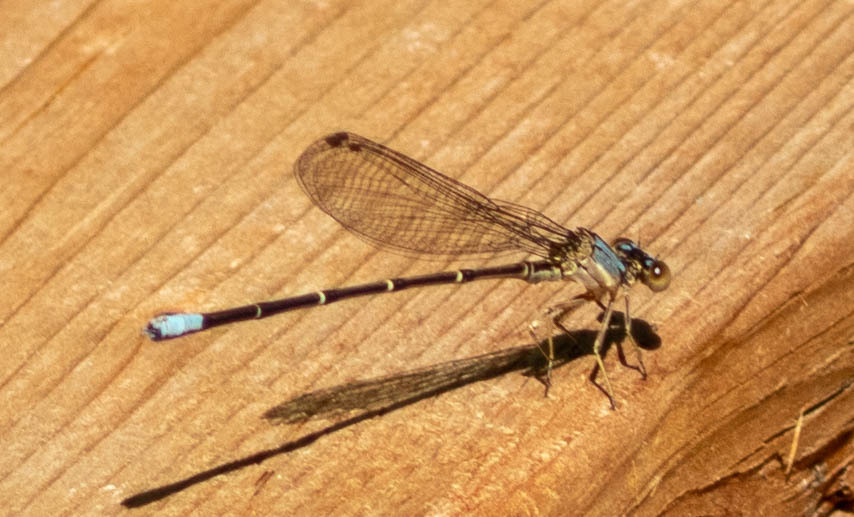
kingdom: Animalia
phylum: Arthropoda
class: Insecta
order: Odonata
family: Coenagrionidae
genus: Argia
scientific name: Argia apicalis
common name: Blue-fronted dancer
